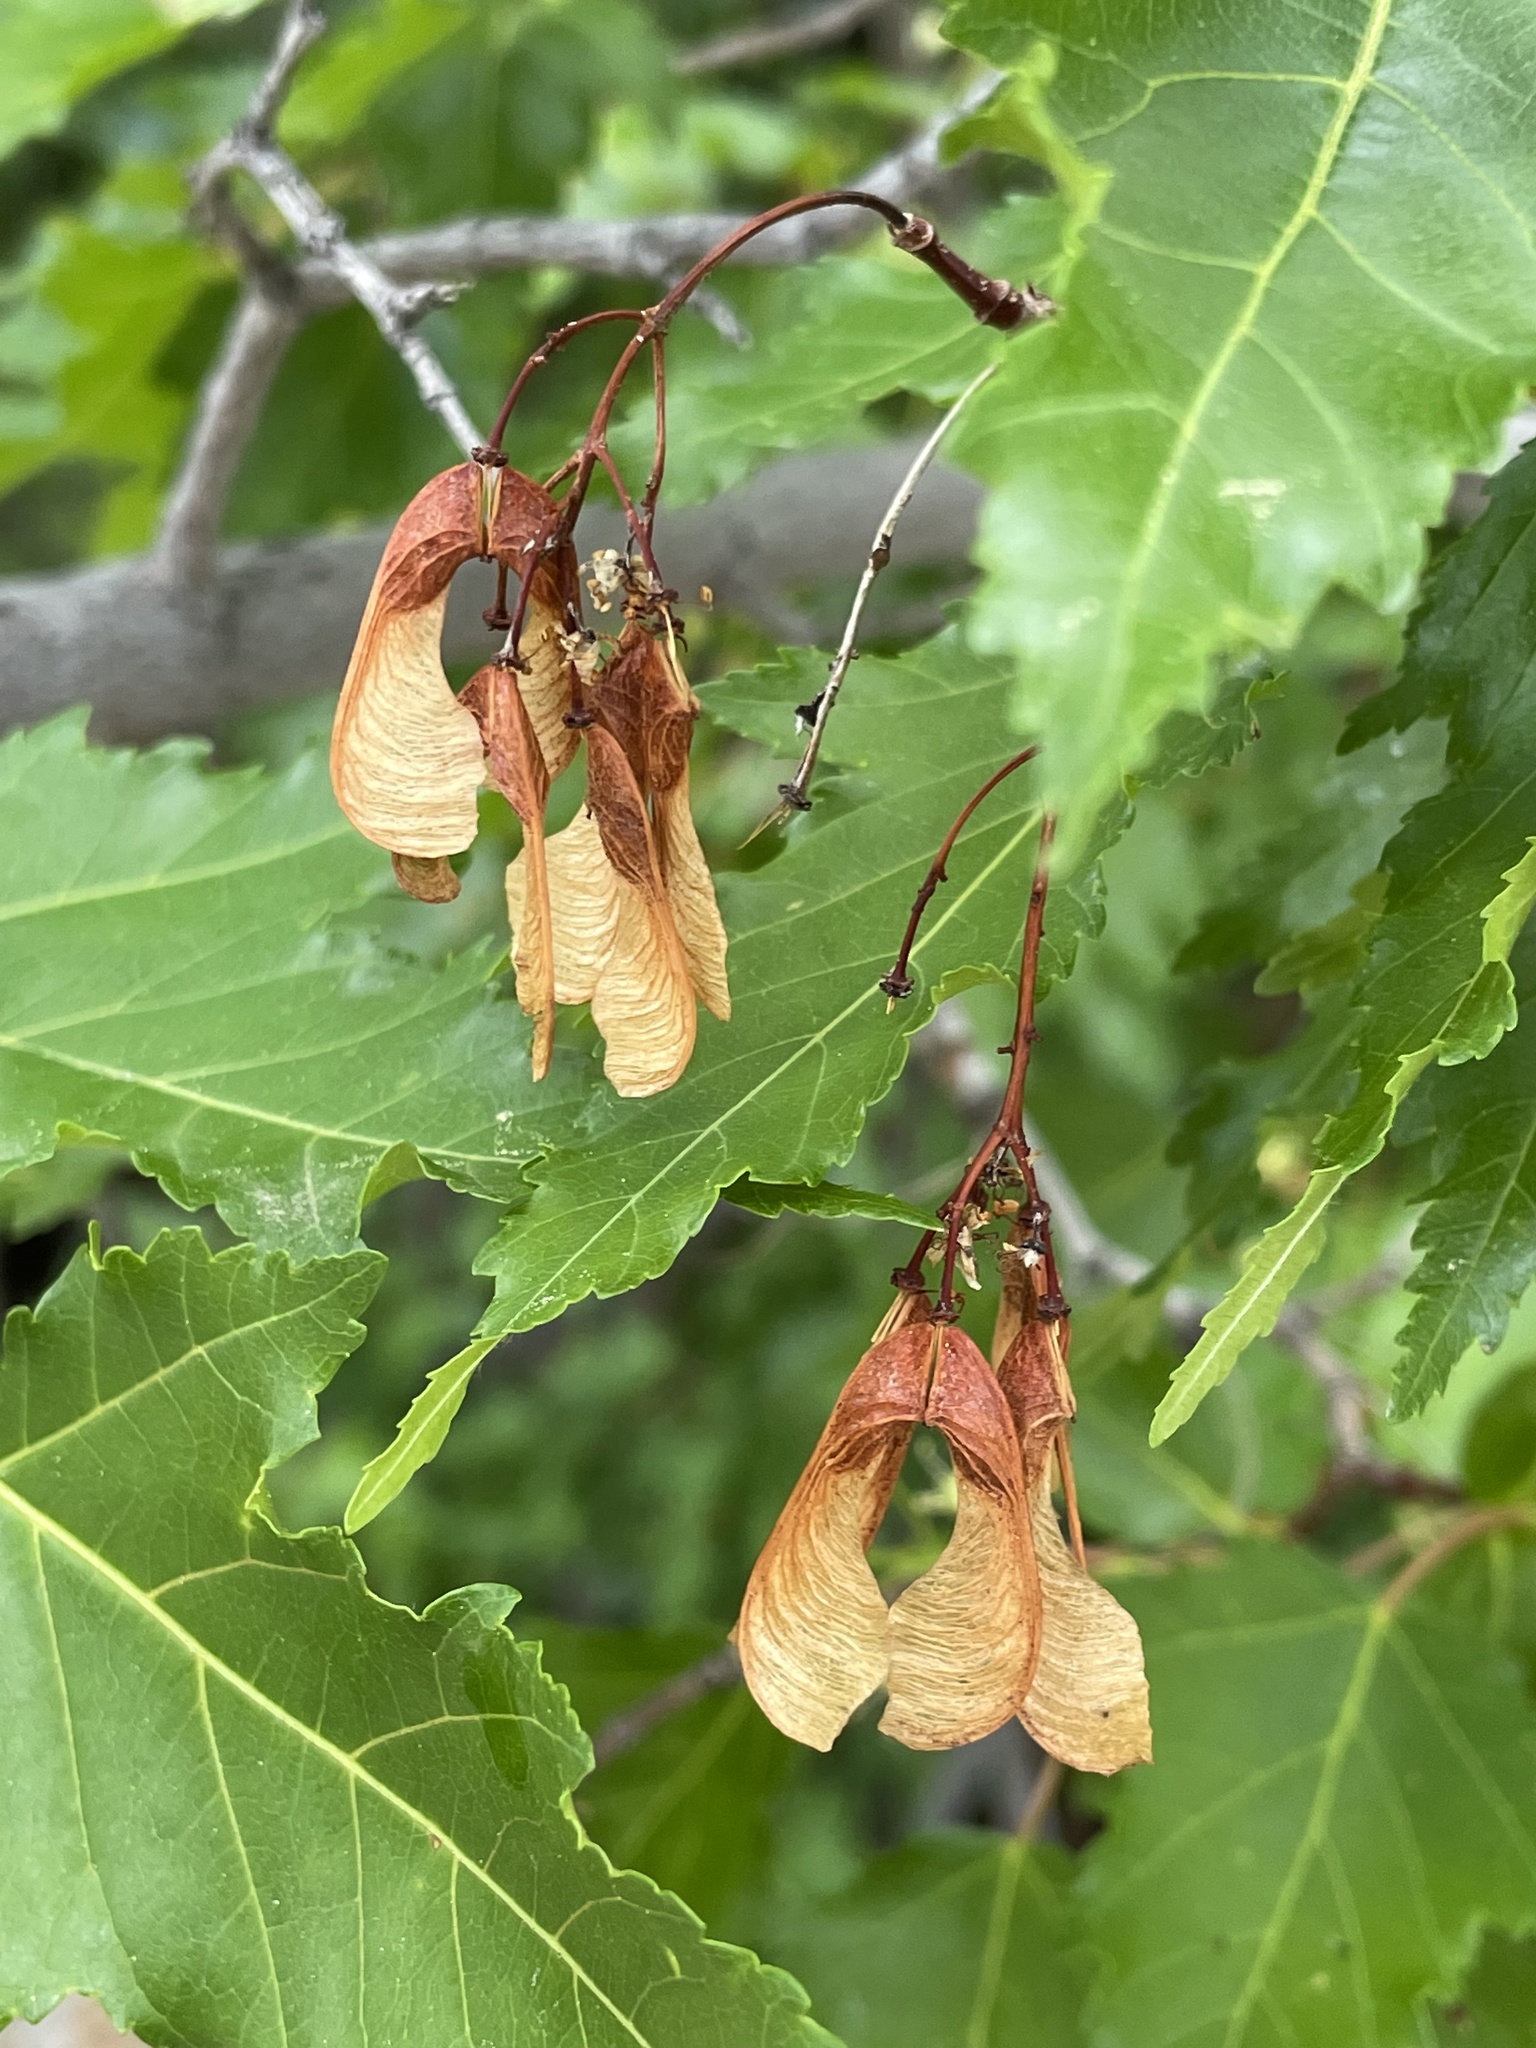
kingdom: Plantae
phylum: Tracheophyta
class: Magnoliopsida
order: Sapindales
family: Sapindaceae
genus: Acer
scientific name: Acer tataricum
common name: Tartar maple
